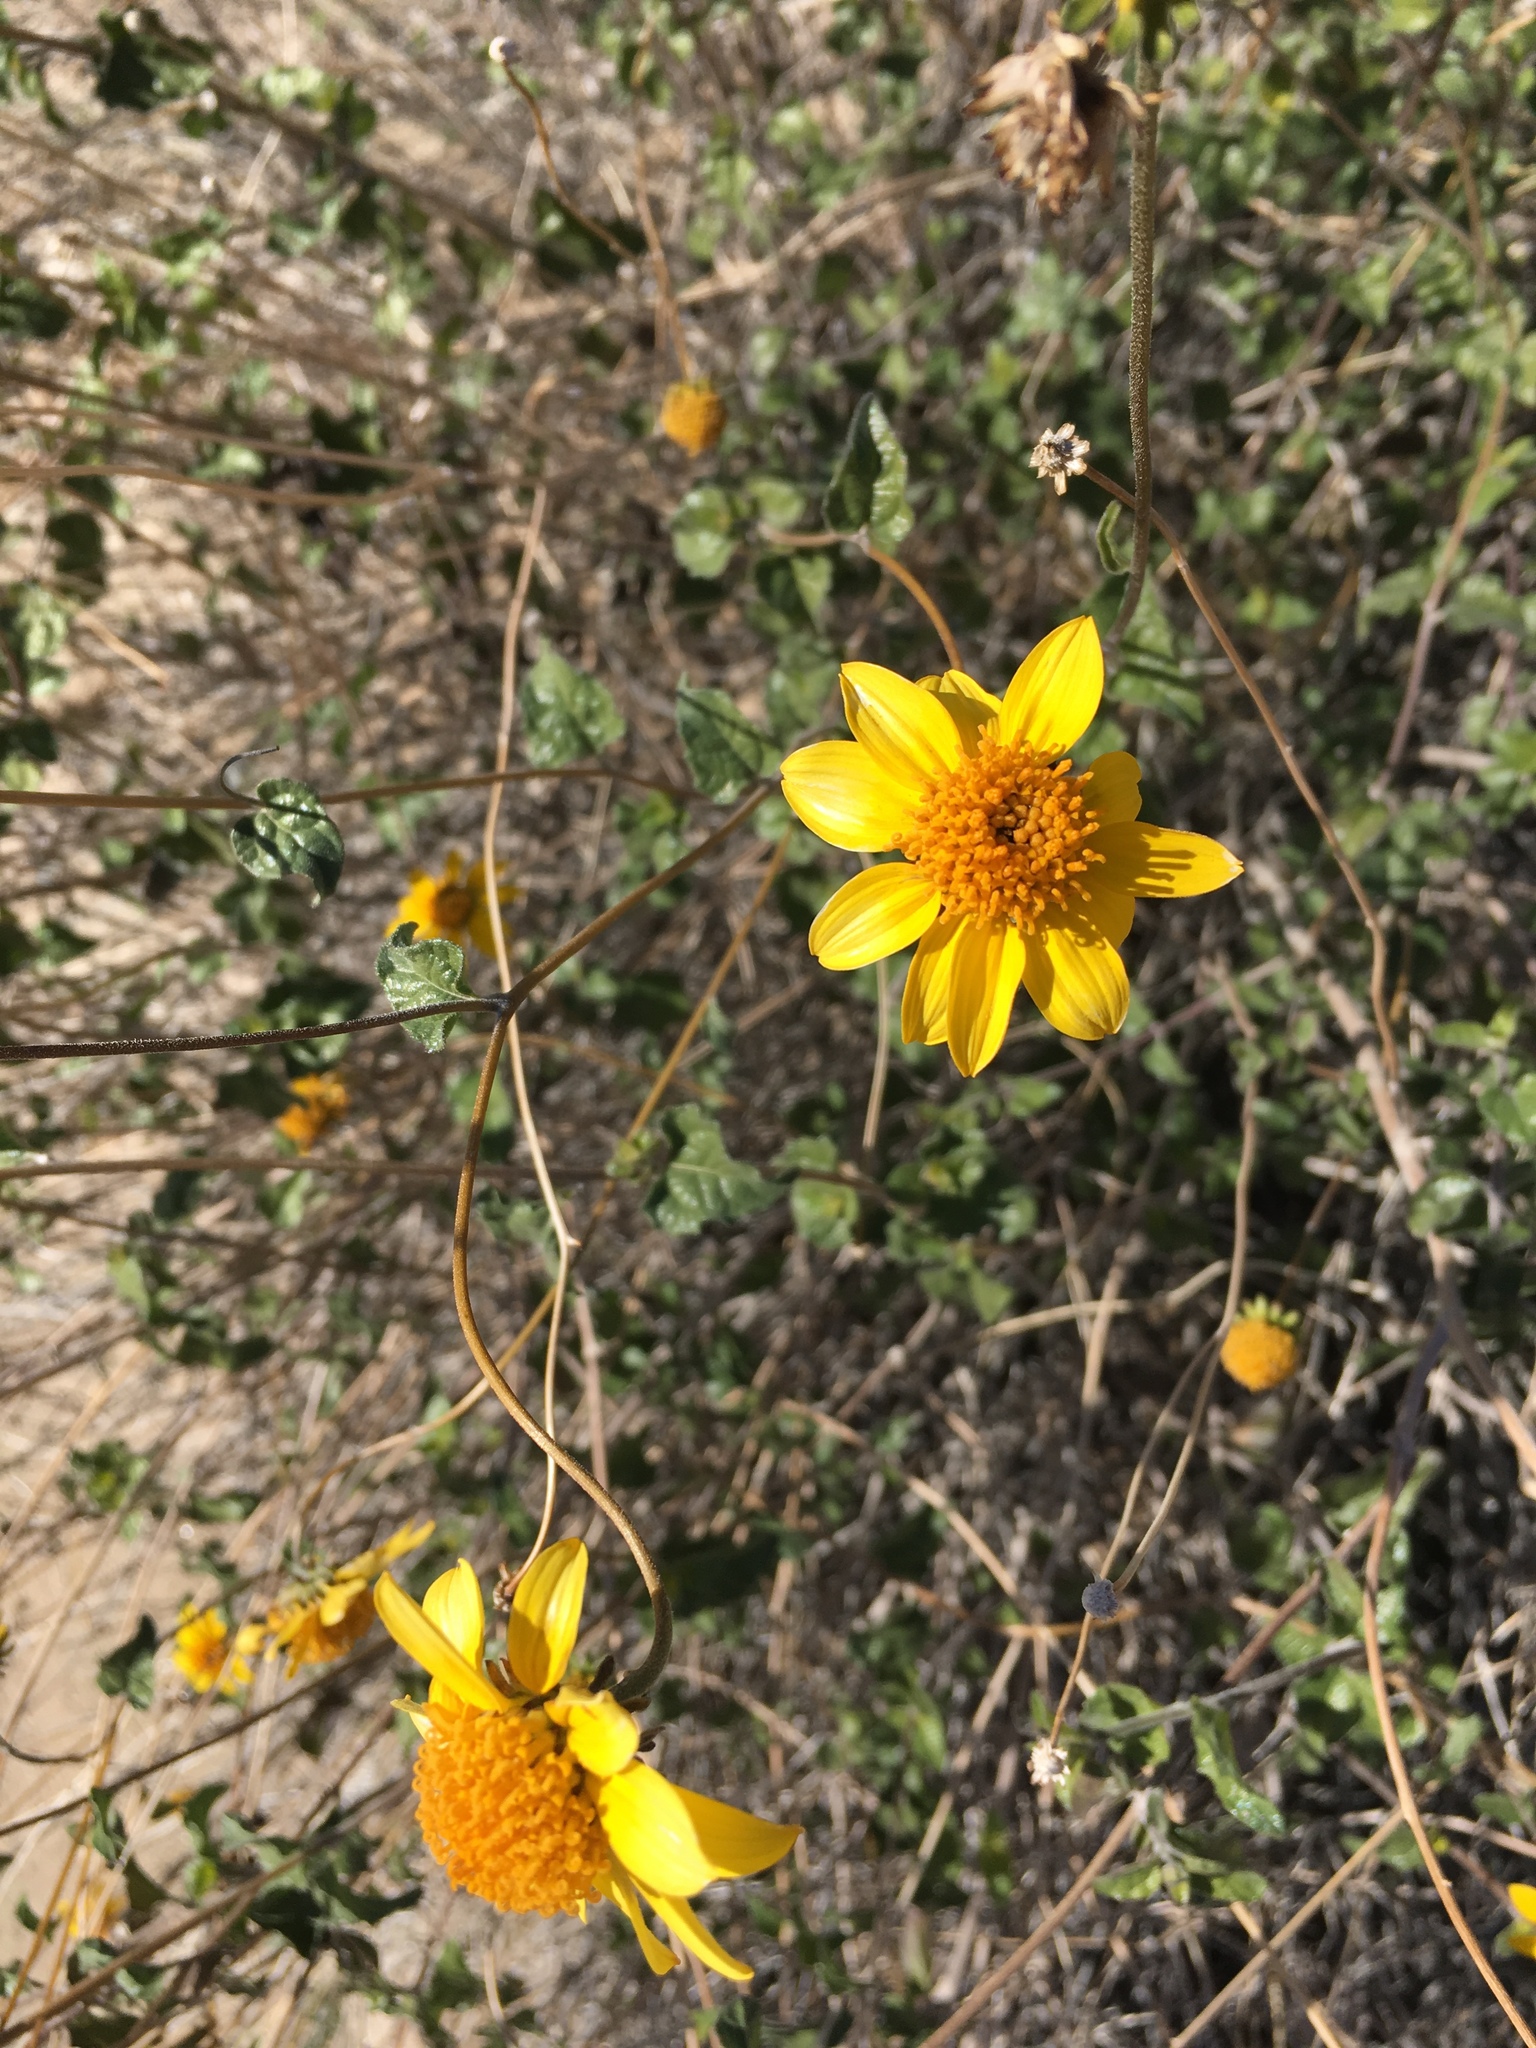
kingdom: Plantae
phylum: Tracheophyta
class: Magnoliopsida
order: Asterales
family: Asteraceae
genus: Bahiopsis
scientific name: Bahiopsis parishii
